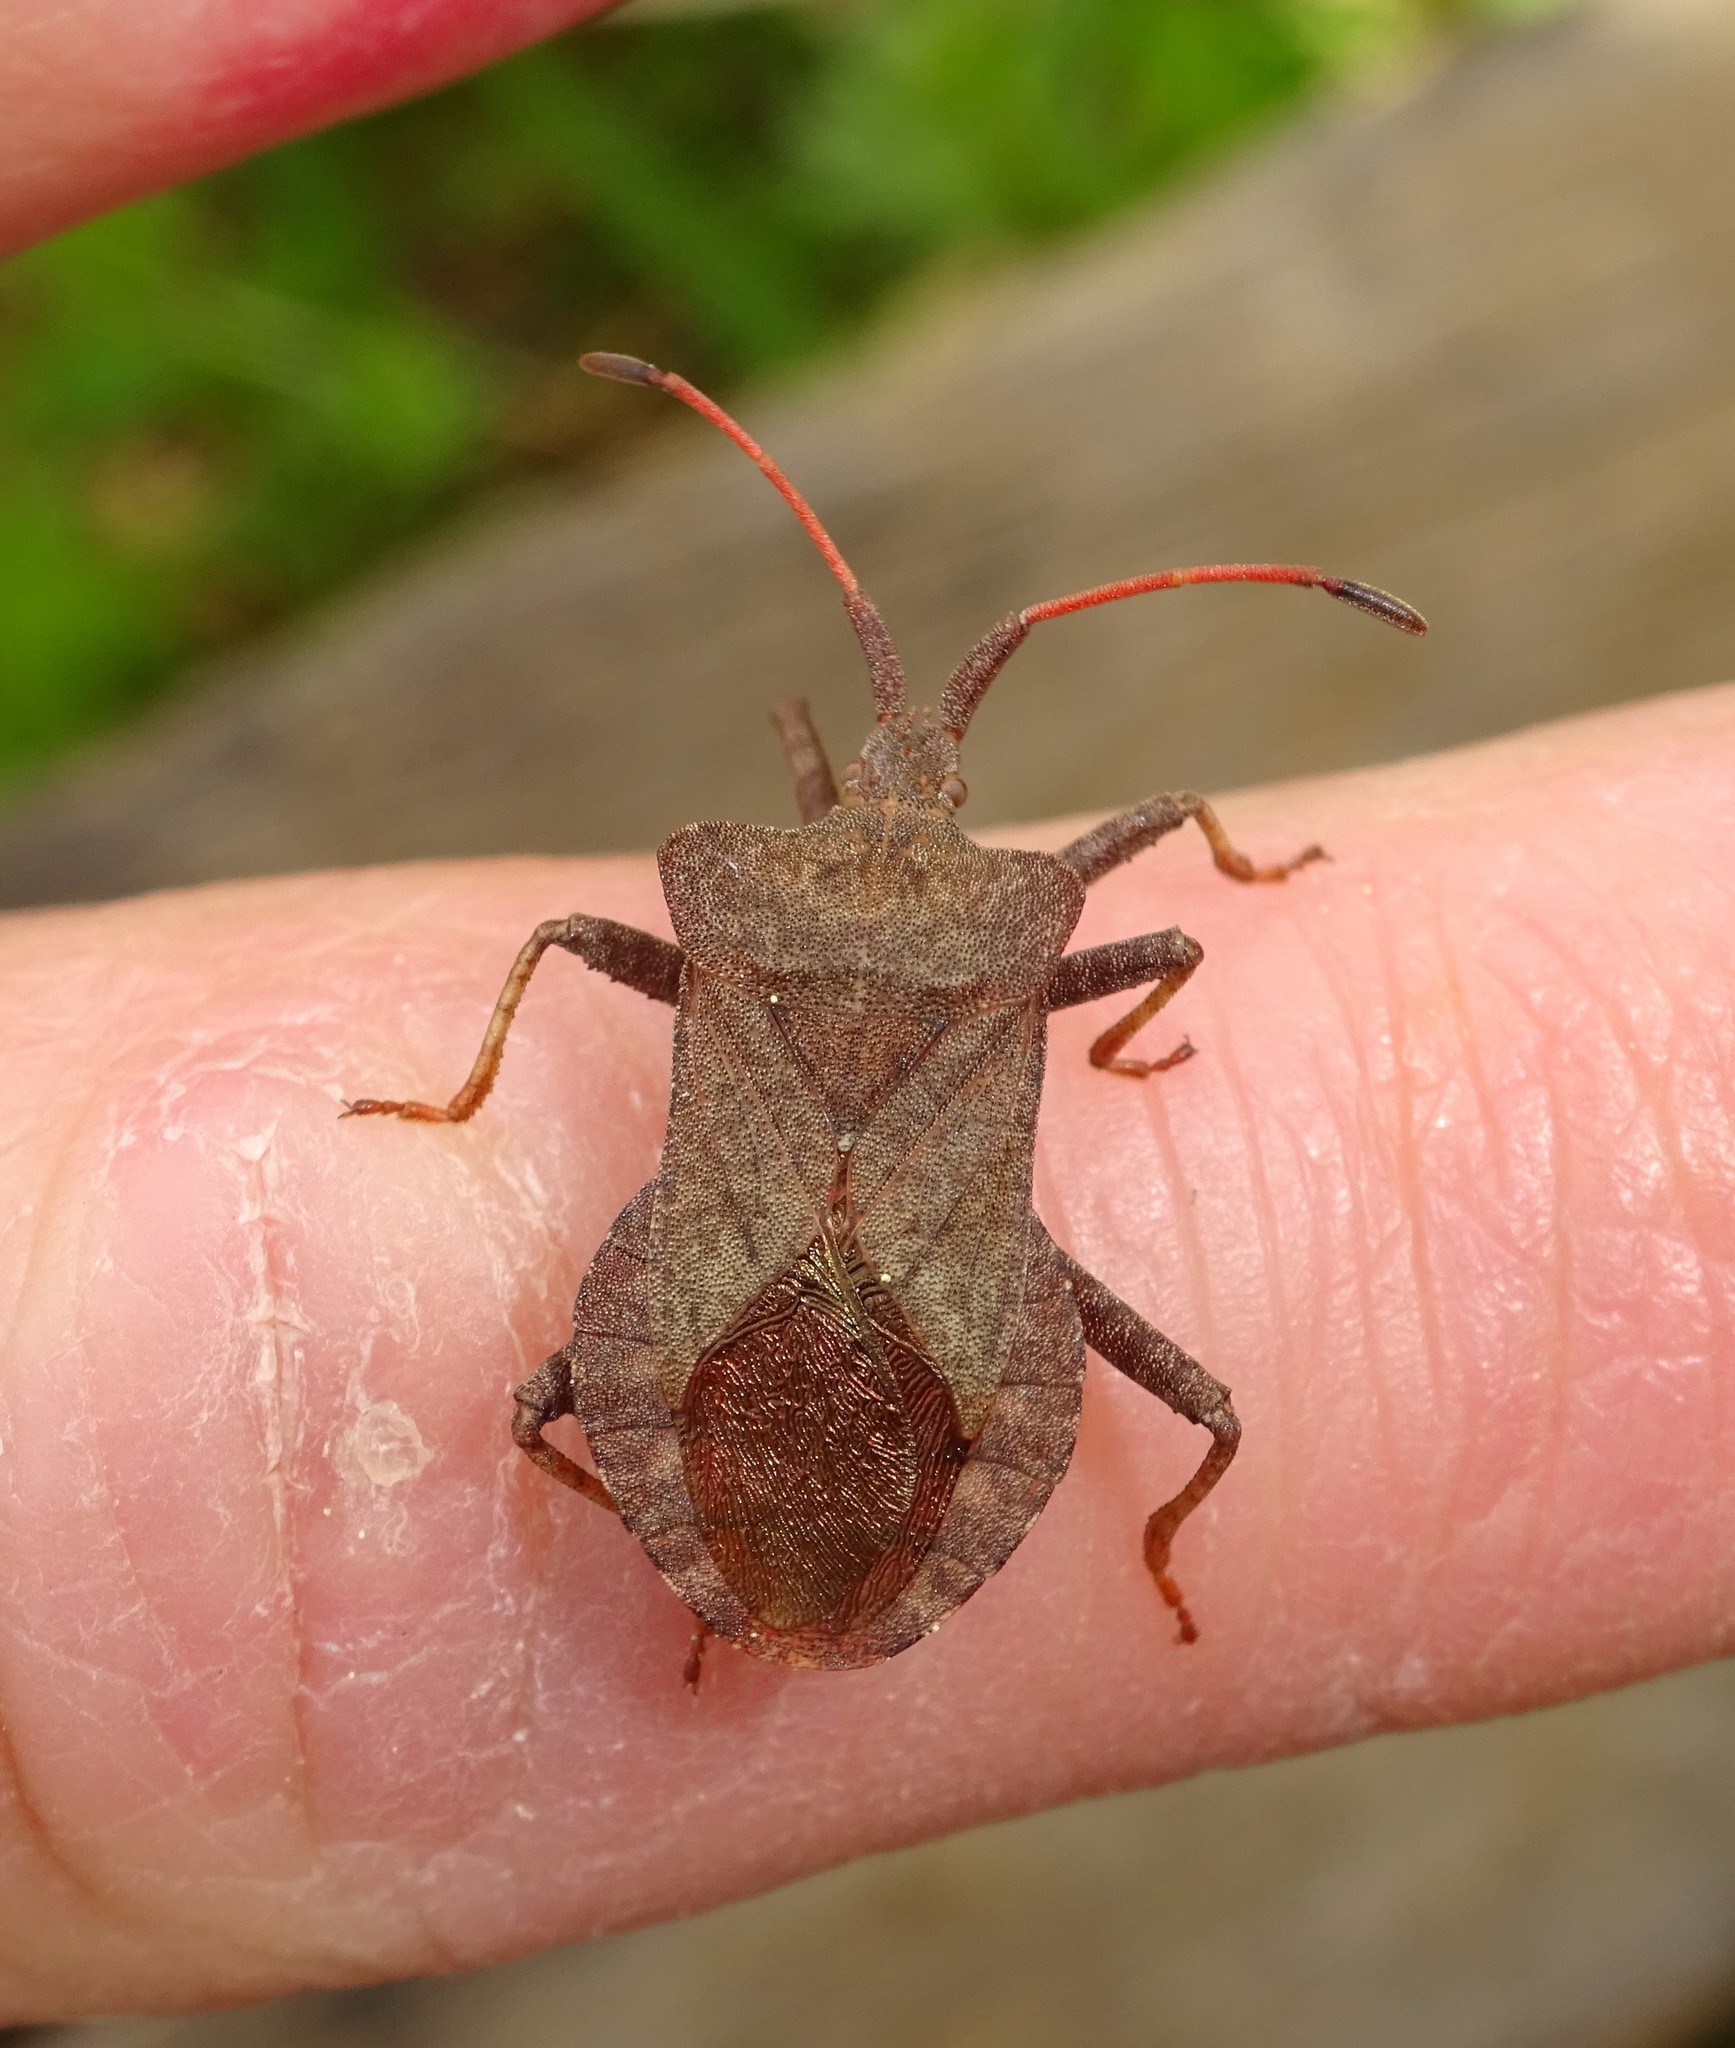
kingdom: Animalia
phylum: Arthropoda
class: Insecta
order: Hemiptera
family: Coreidae
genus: Coreus
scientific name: Coreus marginatus
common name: Dock bug
